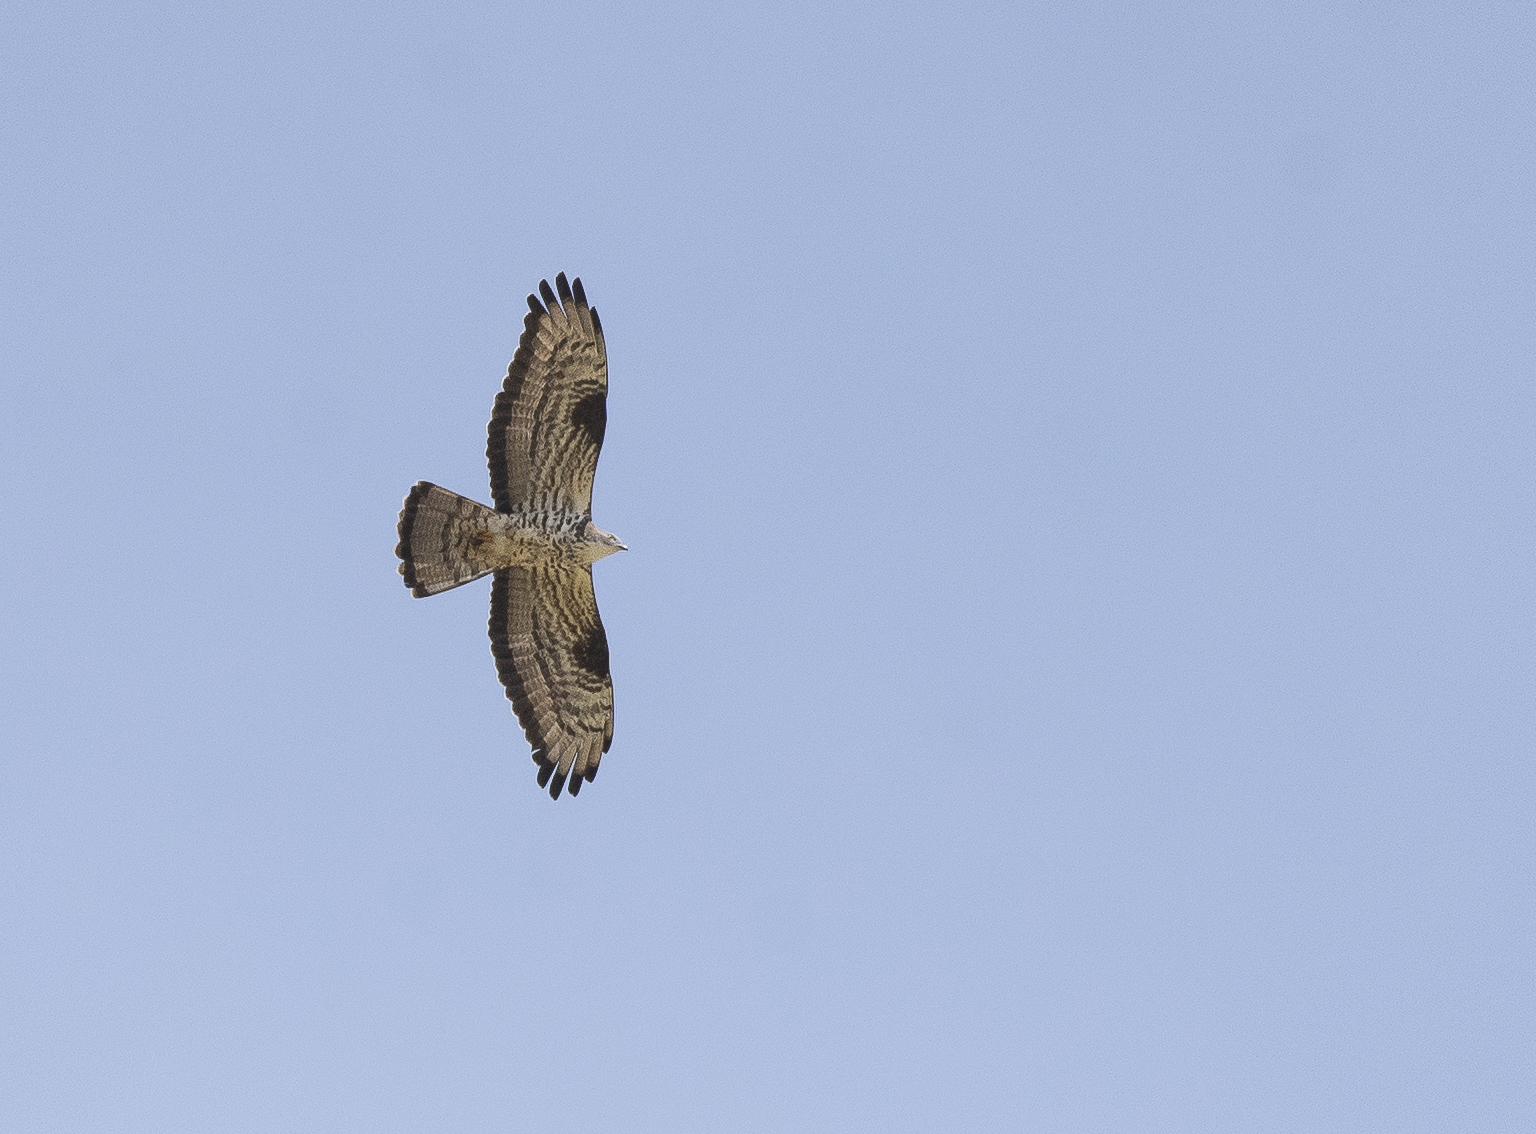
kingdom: Animalia
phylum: Chordata
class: Aves
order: Accipitriformes
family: Accipitridae
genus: Pernis
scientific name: Pernis apivorus
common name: European honey buzzard
